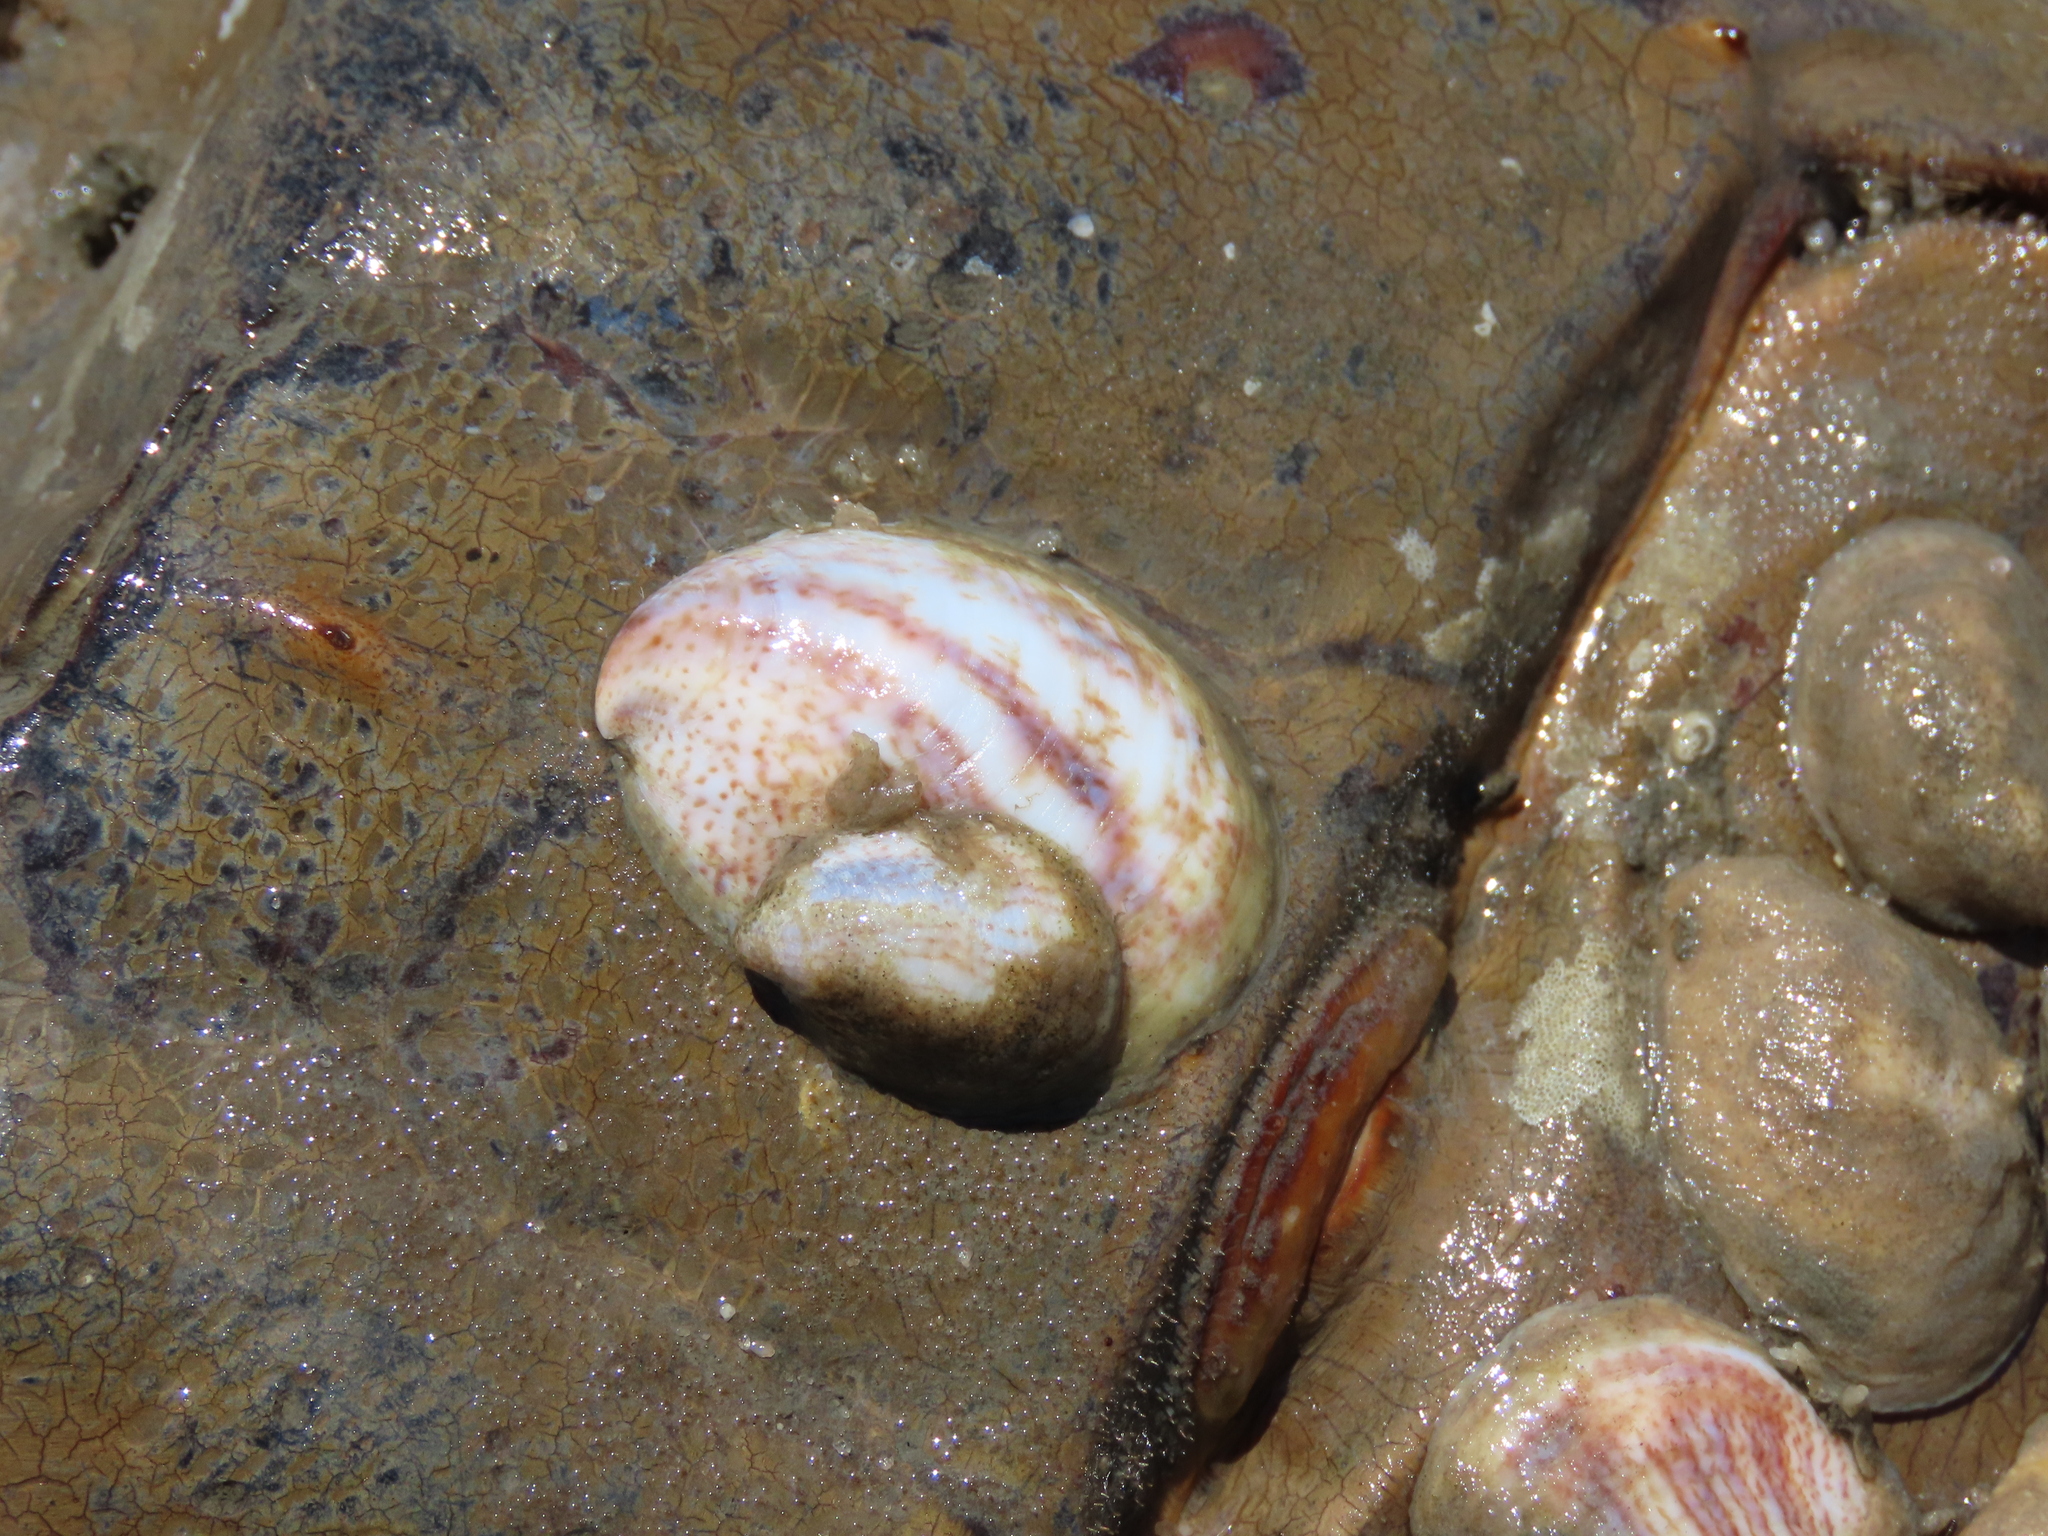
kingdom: Animalia
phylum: Mollusca
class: Gastropoda
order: Littorinimorpha
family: Calyptraeidae
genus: Crepidula
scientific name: Crepidula fornicata
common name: Slipper limpet
